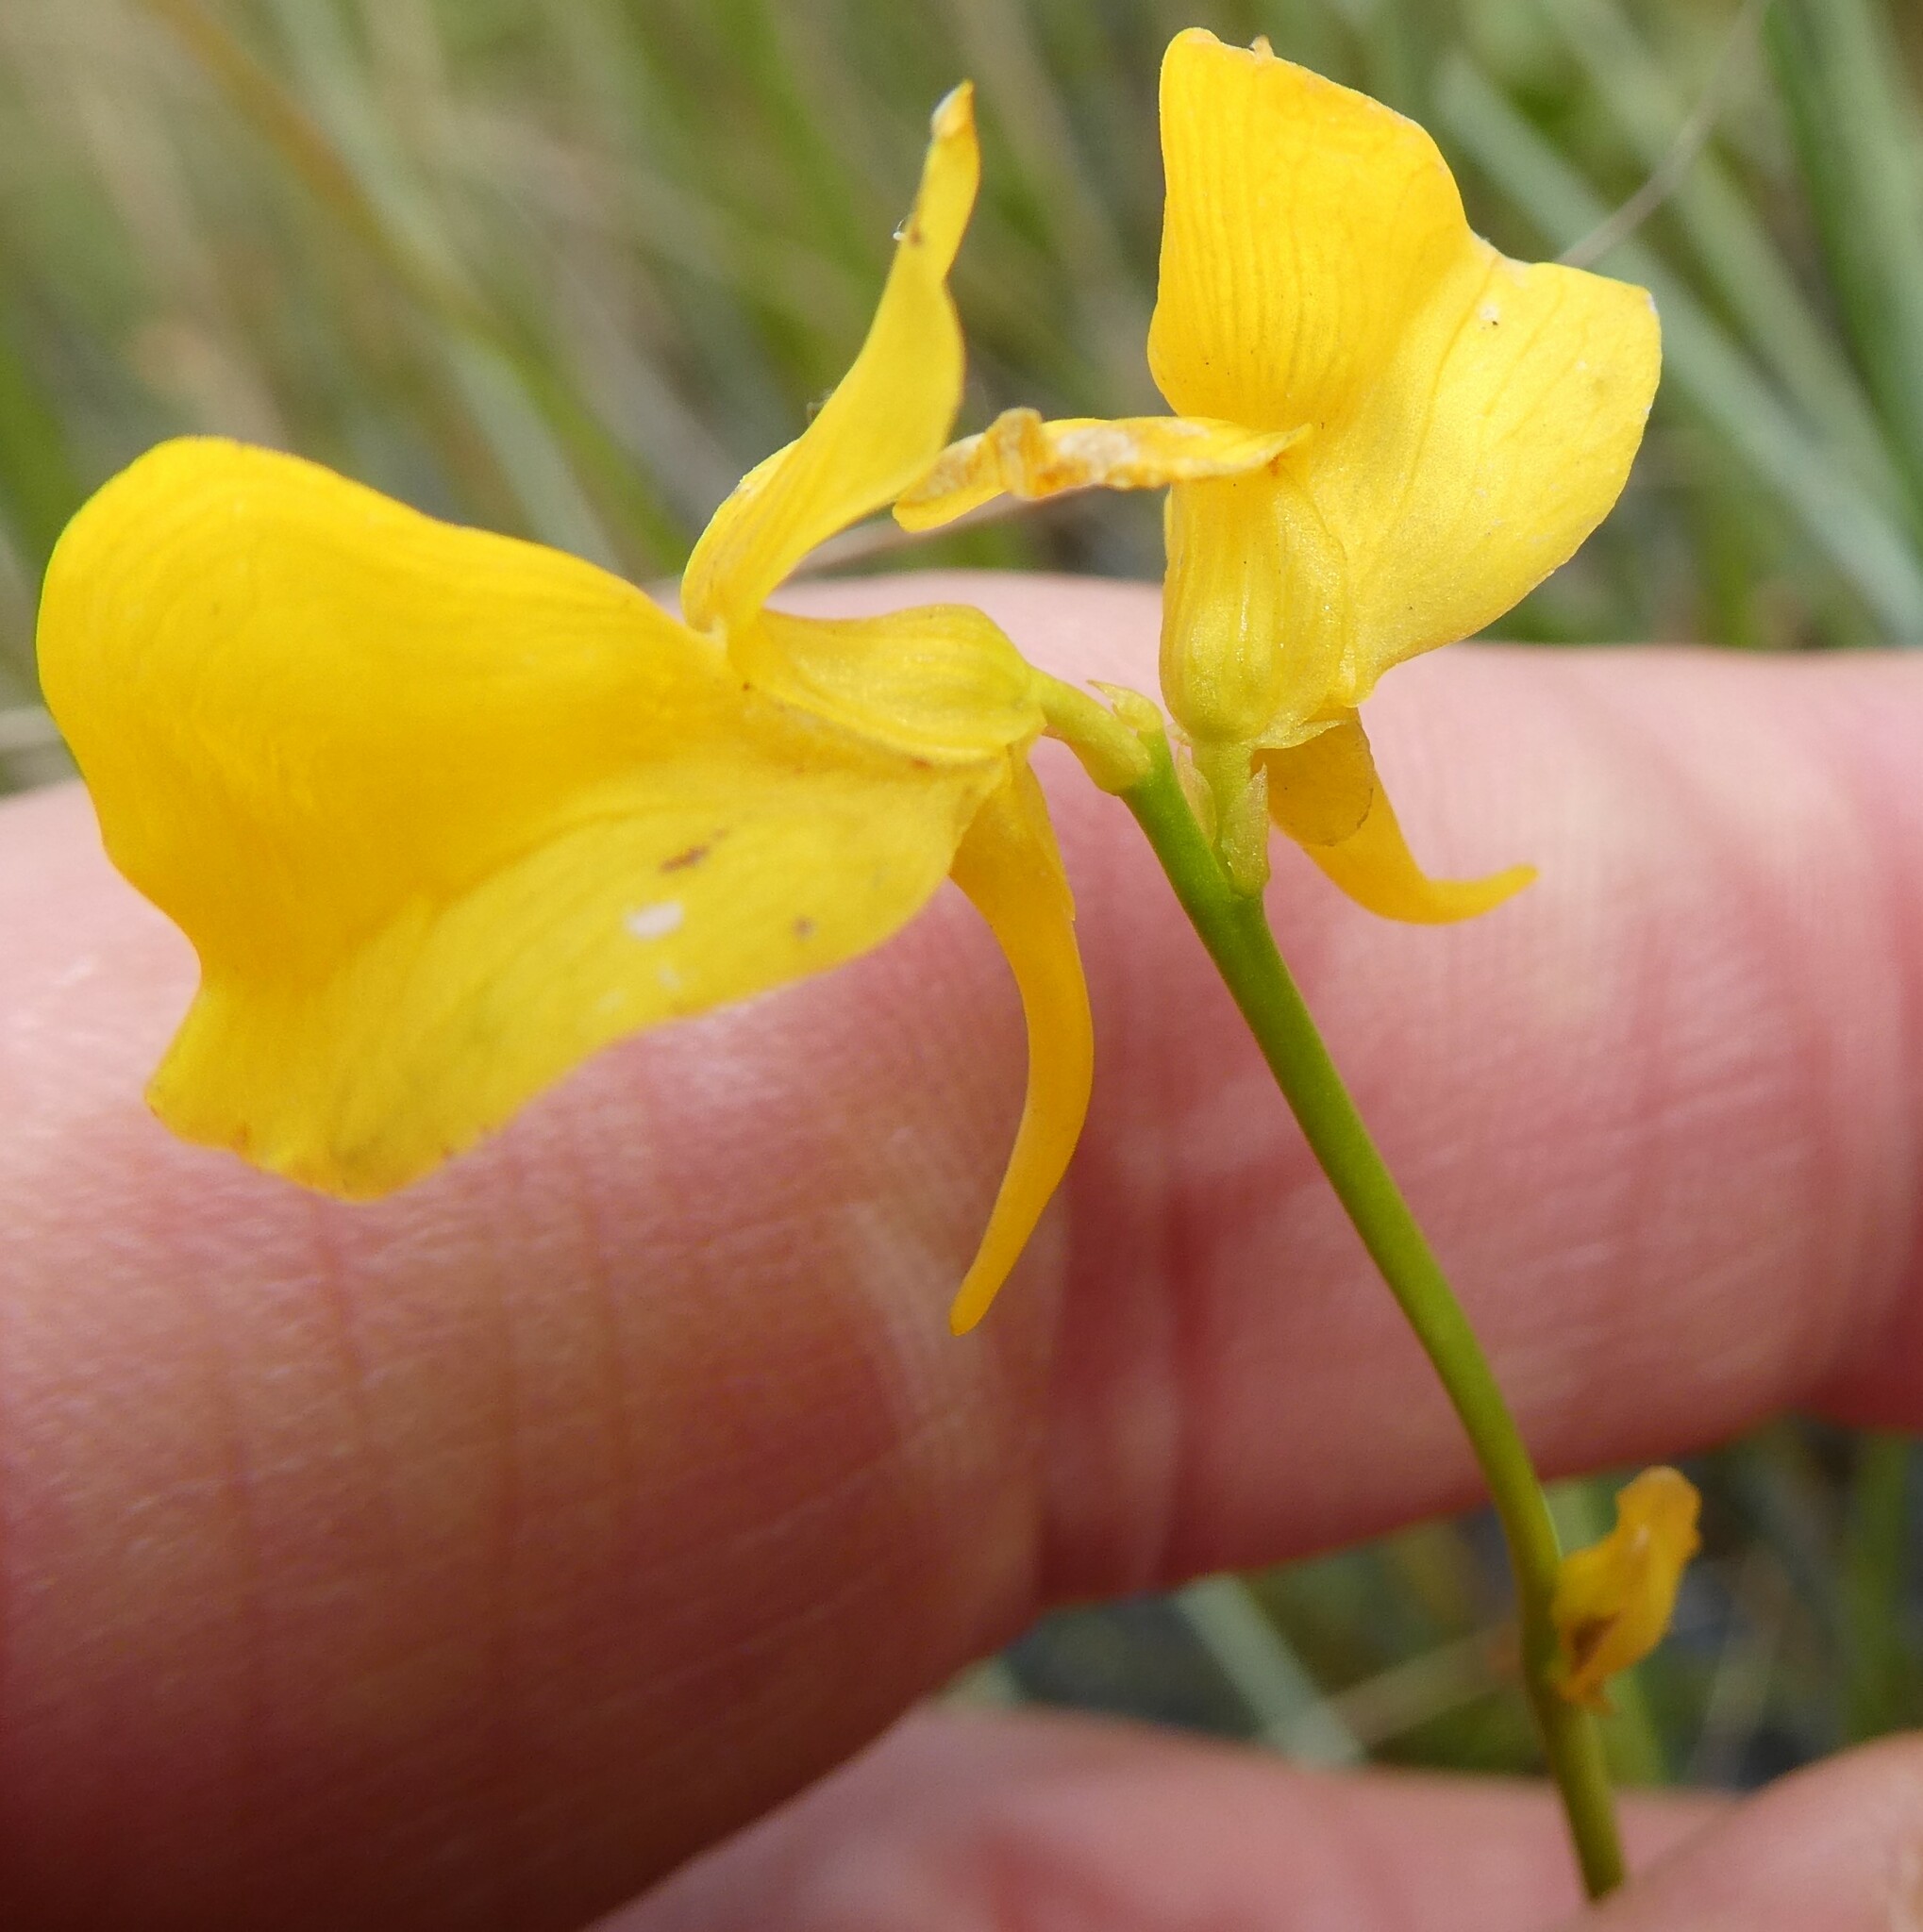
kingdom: Plantae
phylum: Tracheophyta
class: Magnoliopsida
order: Lamiales
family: Lentibulariaceae
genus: Utricularia
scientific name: Utricularia cornuta
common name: Horned bladderwort
